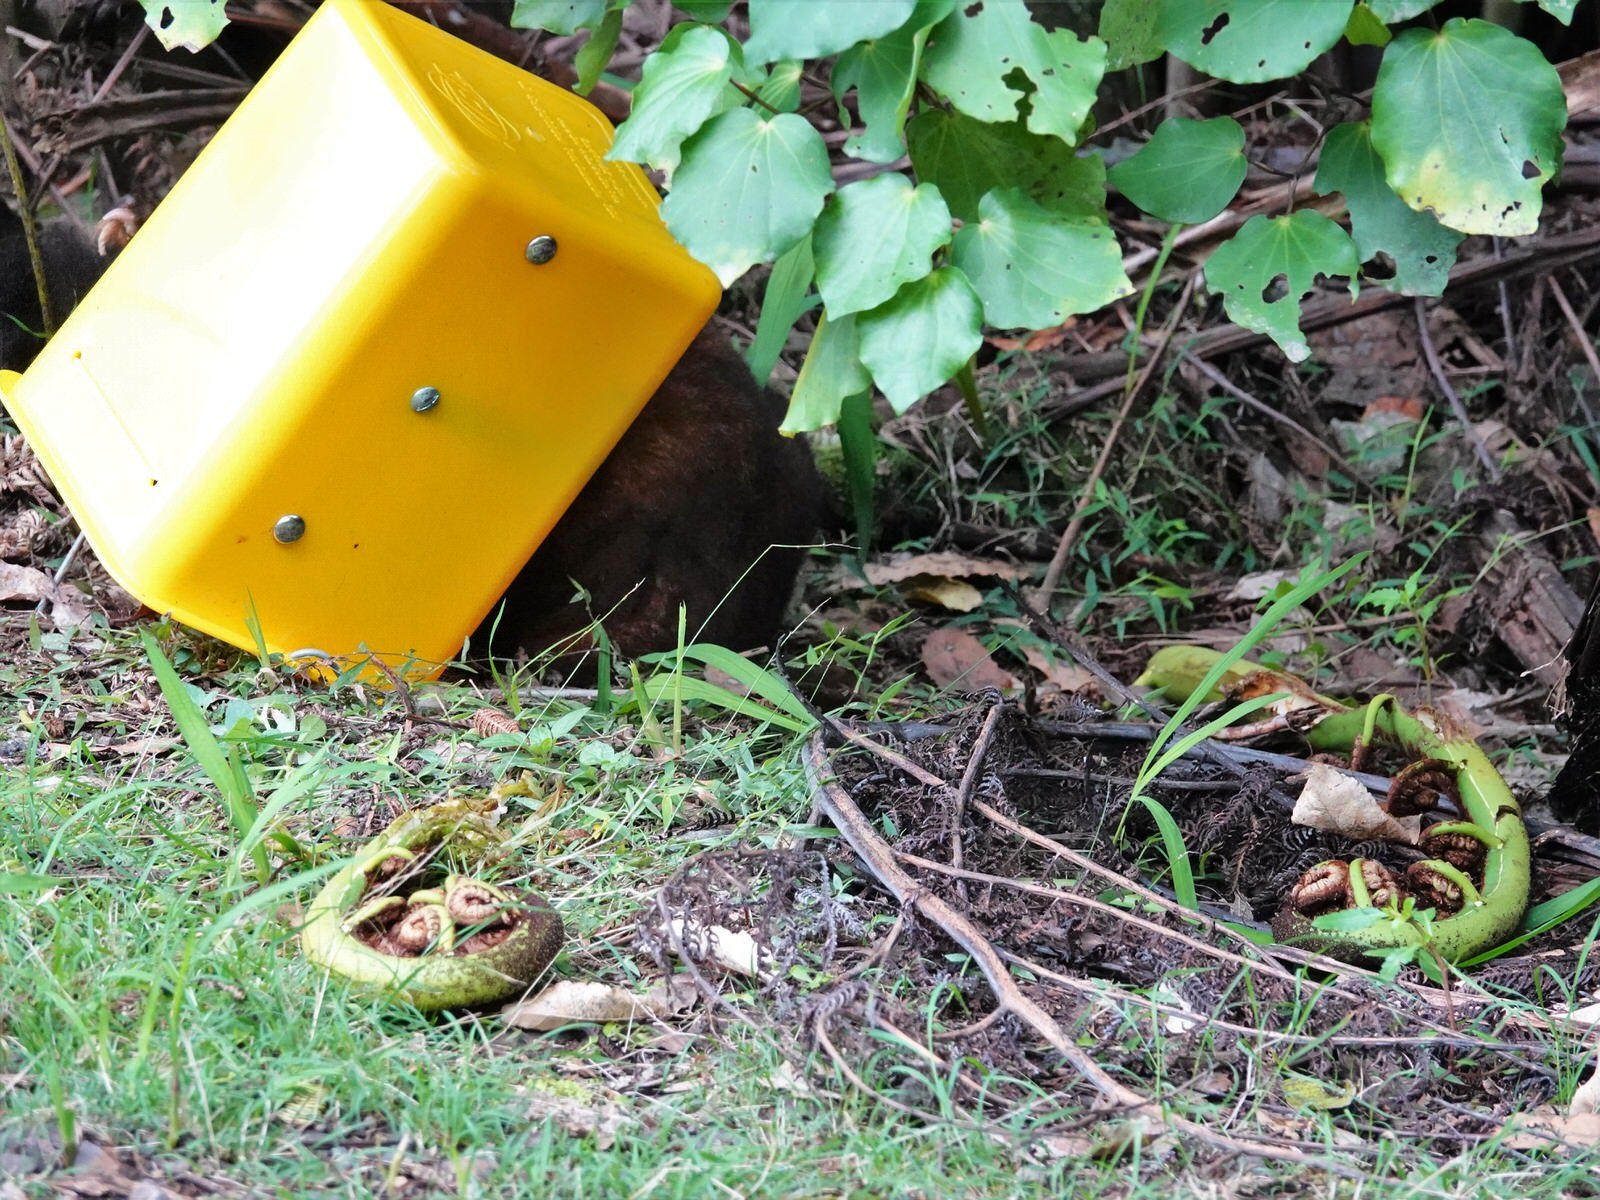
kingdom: Animalia
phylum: Chordata
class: Mammalia
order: Diprotodontia
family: Phalangeridae
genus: Trichosurus
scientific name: Trichosurus vulpecula
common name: Common brushtail
